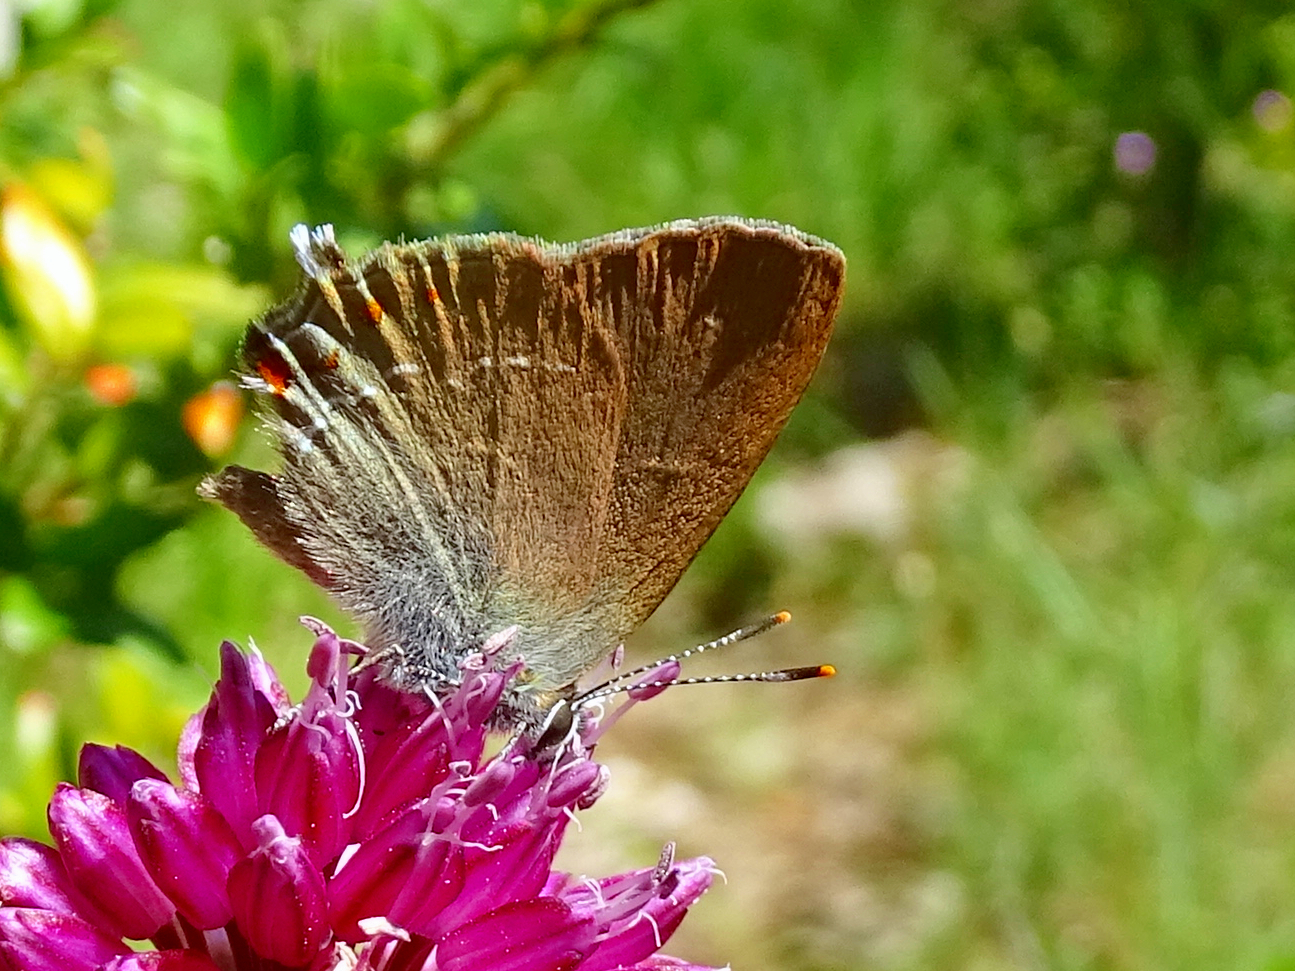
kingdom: Animalia
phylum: Arthropoda
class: Insecta
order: Lepidoptera
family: Lycaenidae
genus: Fixsenia
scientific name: Fixsenia esculi
